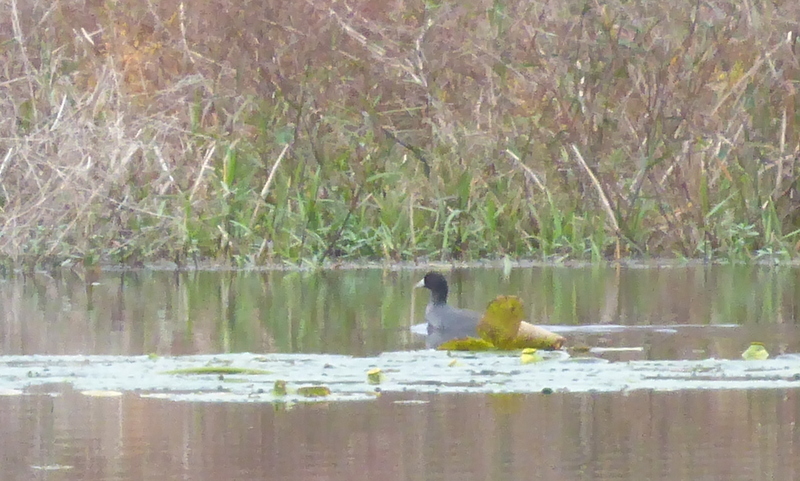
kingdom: Animalia
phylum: Chordata
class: Aves
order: Gruiformes
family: Rallidae
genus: Fulica
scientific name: Fulica americana
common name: American coot
